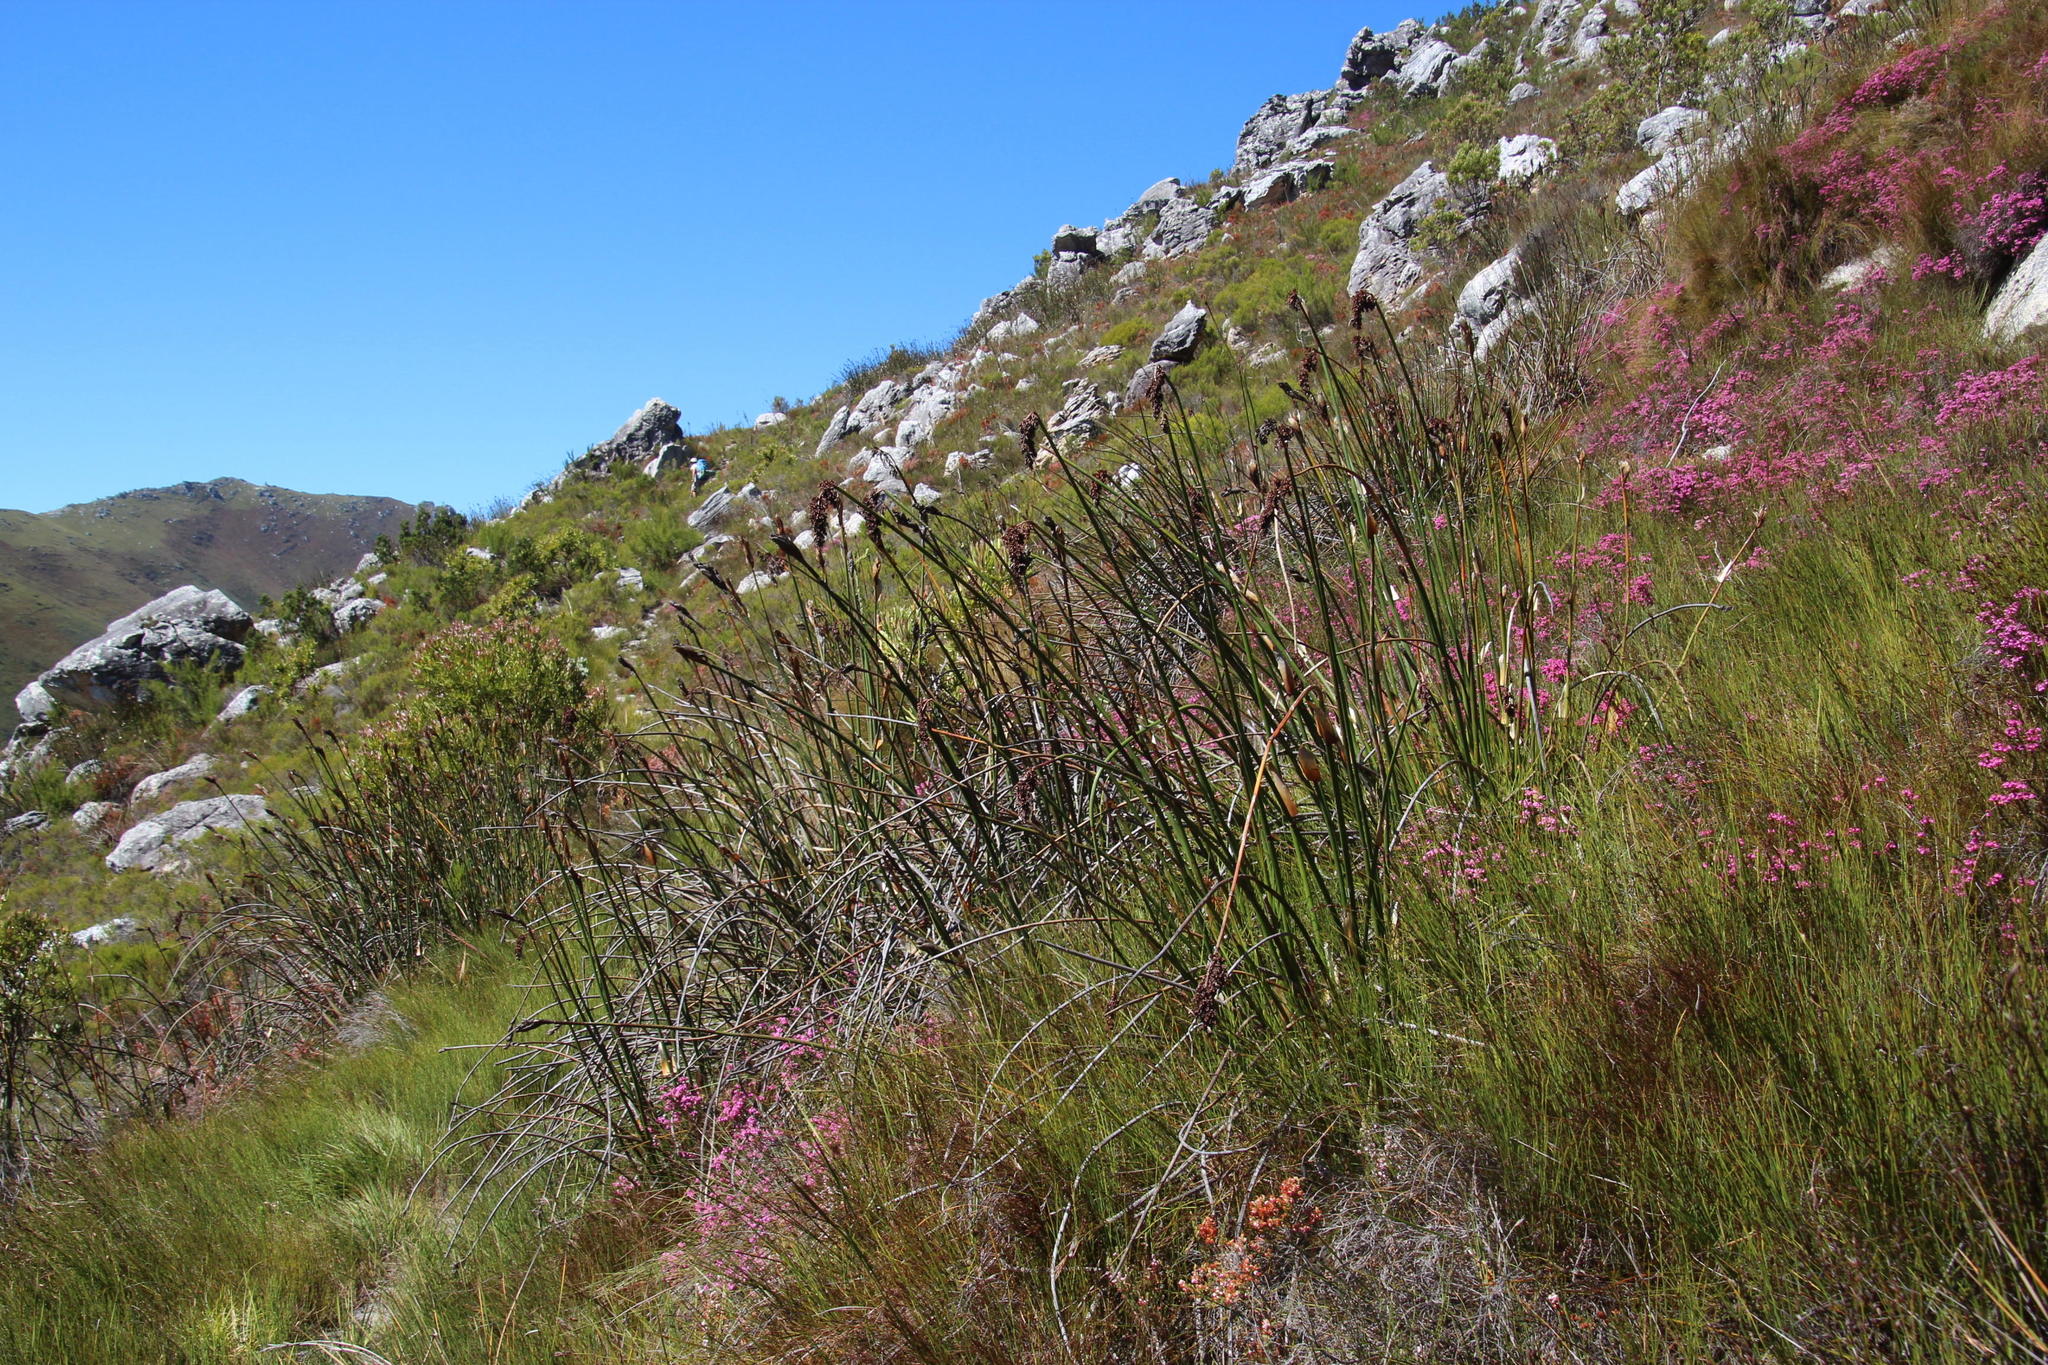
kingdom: Plantae
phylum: Tracheophyta
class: Liliopsida
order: Poales
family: Restionaceae
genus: Elegia
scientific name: Elegia mucronata
